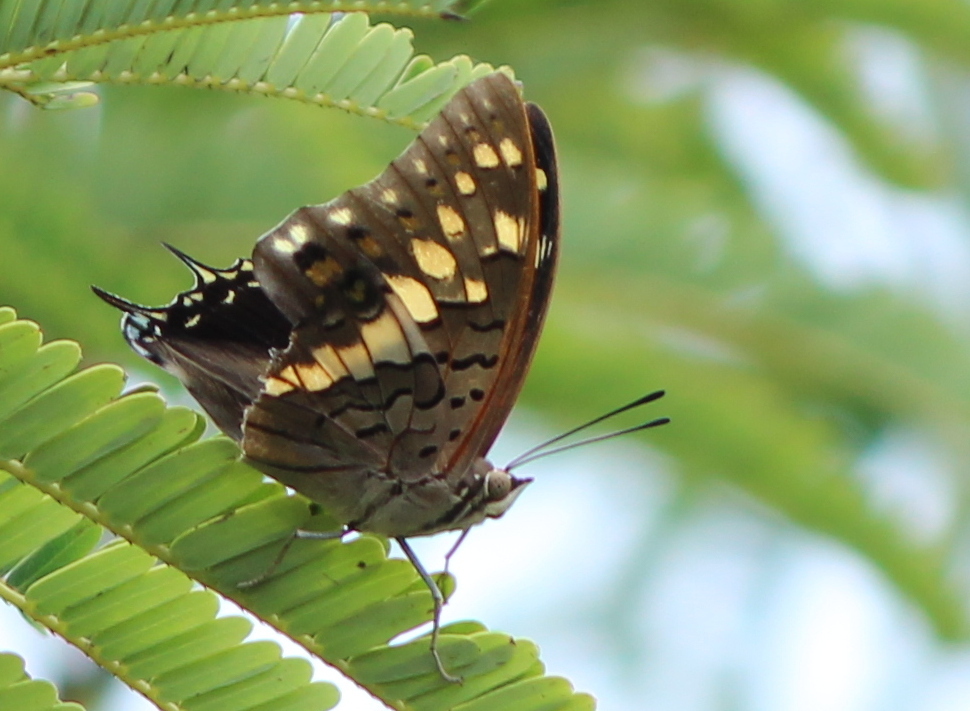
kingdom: Animalia
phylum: Arthropoda
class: Insecta
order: Lepidoptera
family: Nymphalidae
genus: Charaxes
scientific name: Charaxes solon
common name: Black rajah
